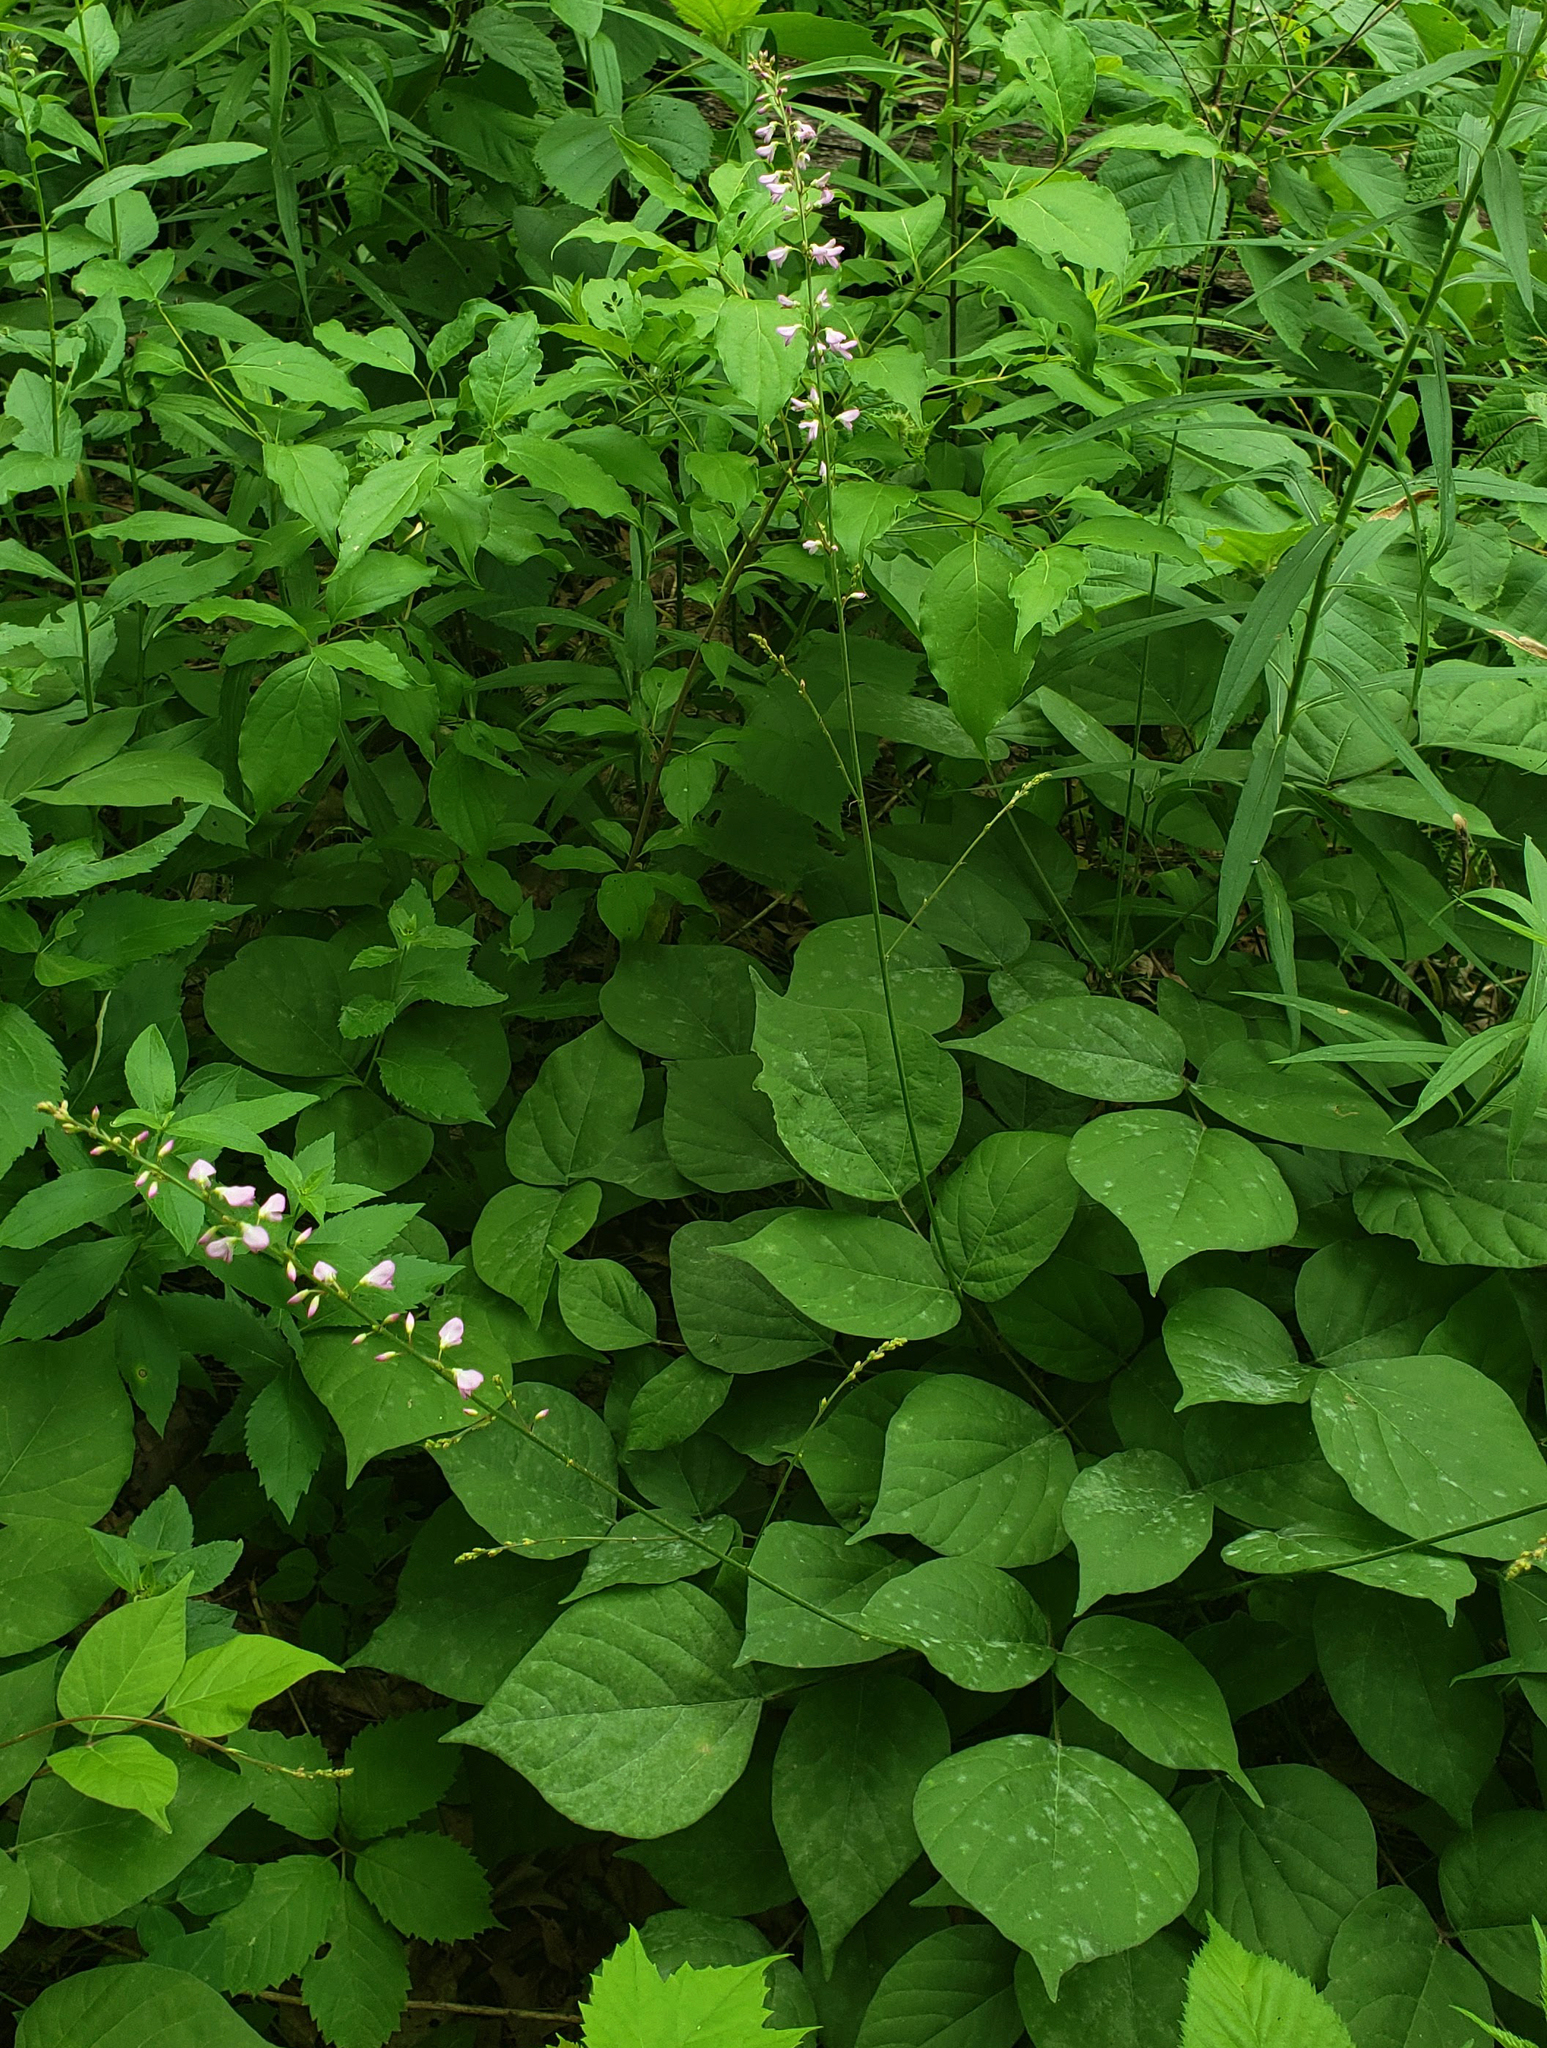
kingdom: Plantae
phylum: Tracheophyta
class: Magnoliopsida
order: Fabales
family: Fabaceae
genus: Hylodesmum
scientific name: Hylodesmum glutinosum
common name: Clustered-leaved tick-trefoil
